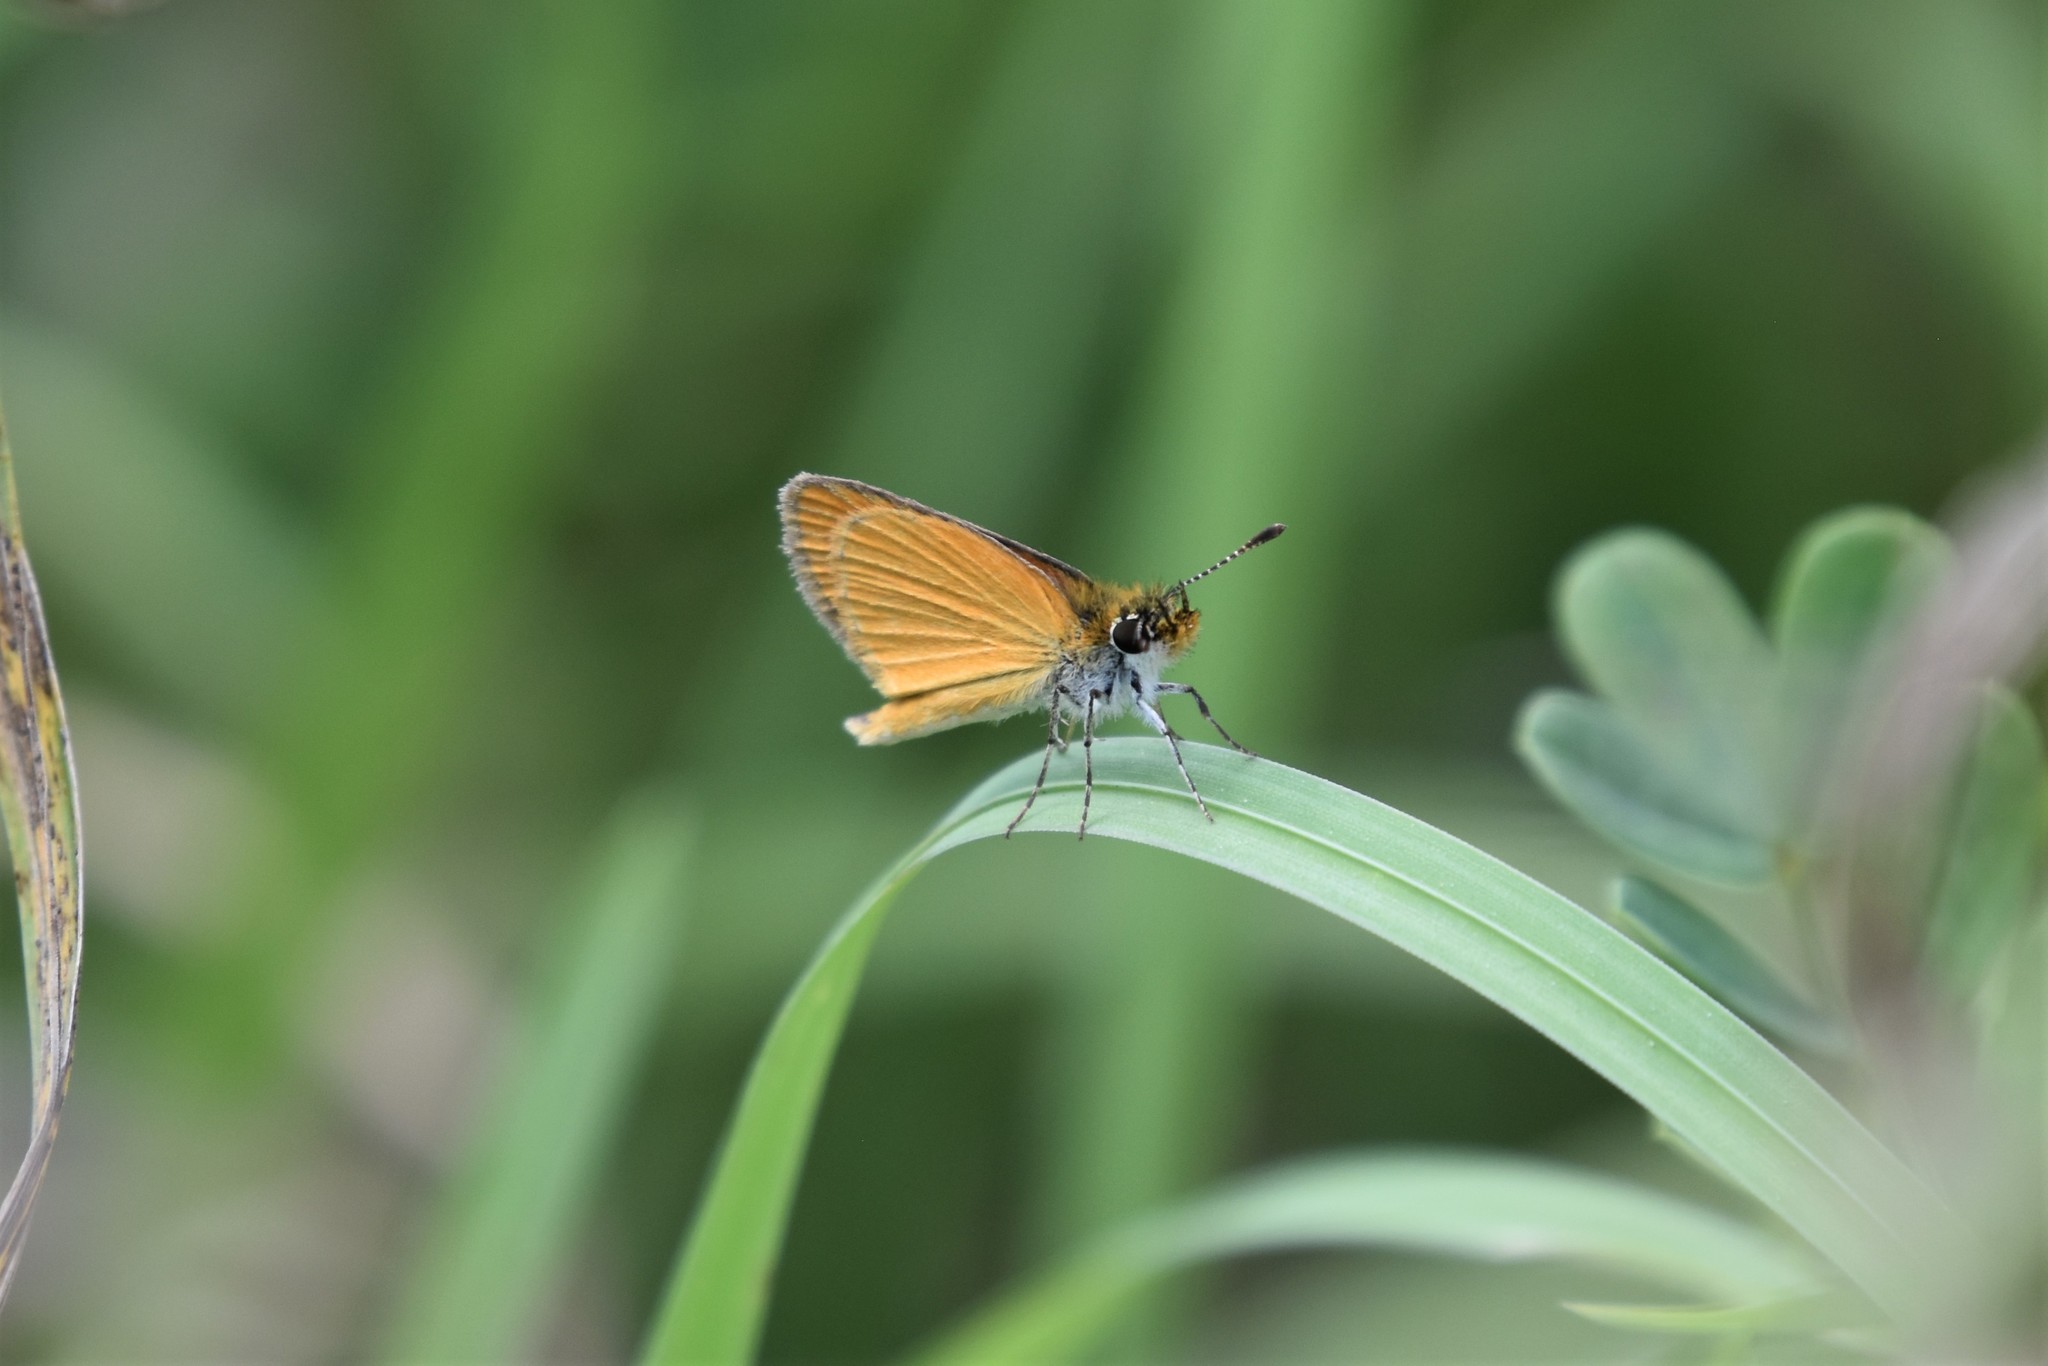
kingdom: Animalia
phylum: Arthropoda
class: Insecta
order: Lepidoptera
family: Hesperiidae
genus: Ancyloxypha
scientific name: Ancyloxypha numitor
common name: Least skipper
